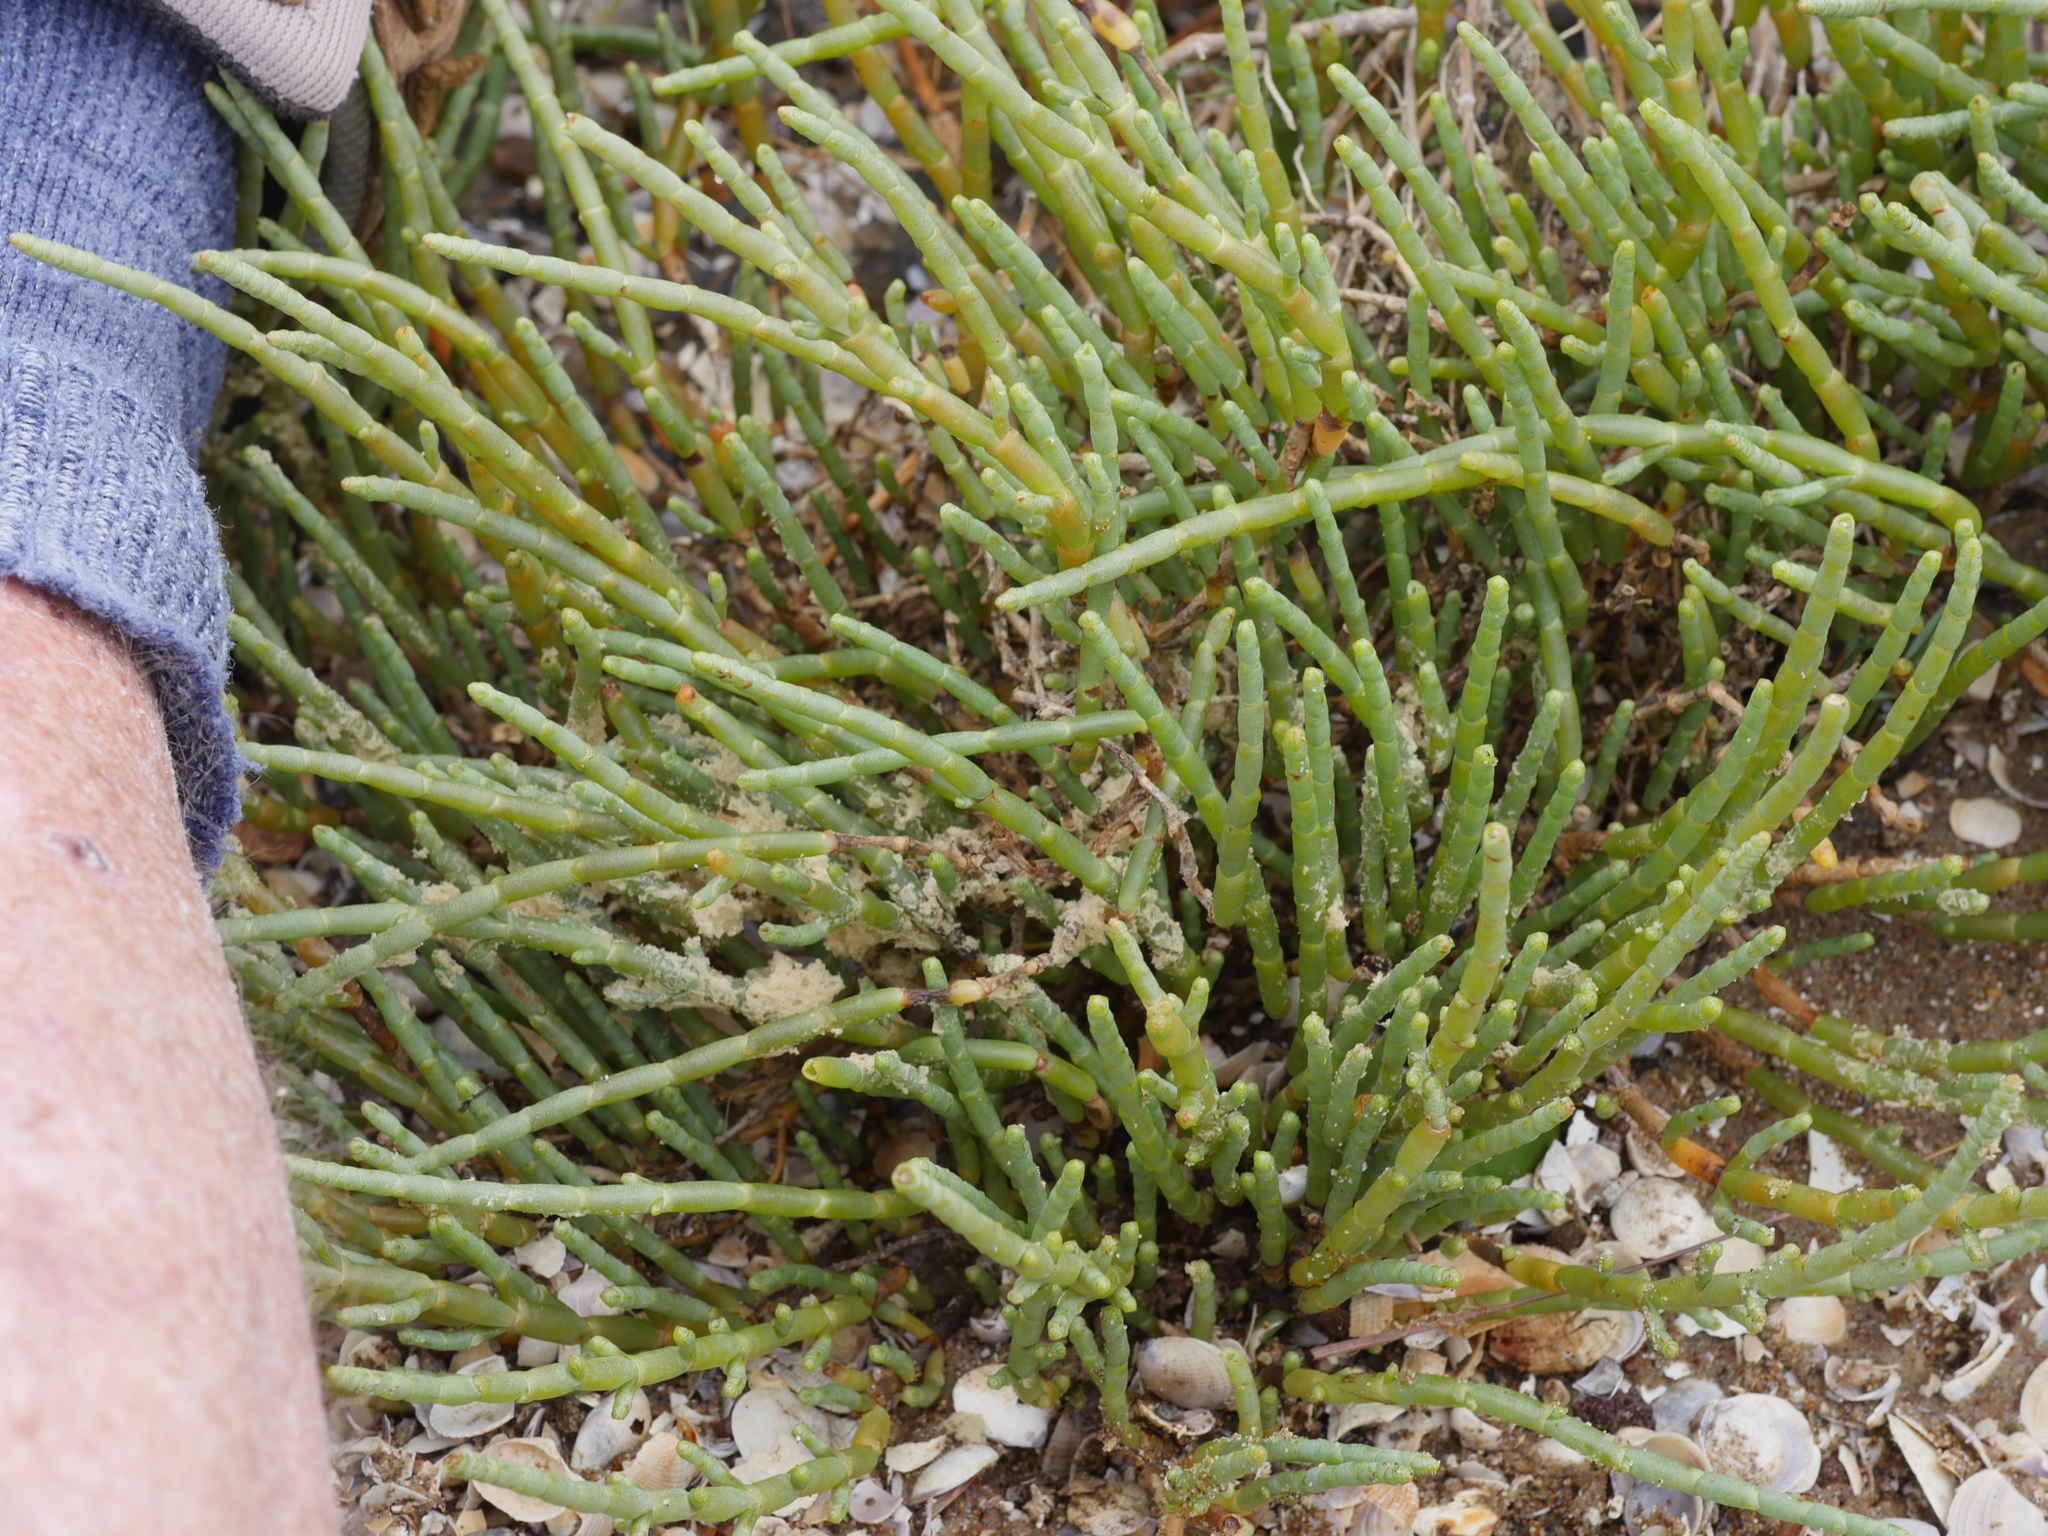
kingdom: Plantae
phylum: Tracheophyta
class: Magnoliopsida
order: Caryophyllales
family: Amaranthaceae
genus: Salicornia
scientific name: Salicornia quinqueflora
